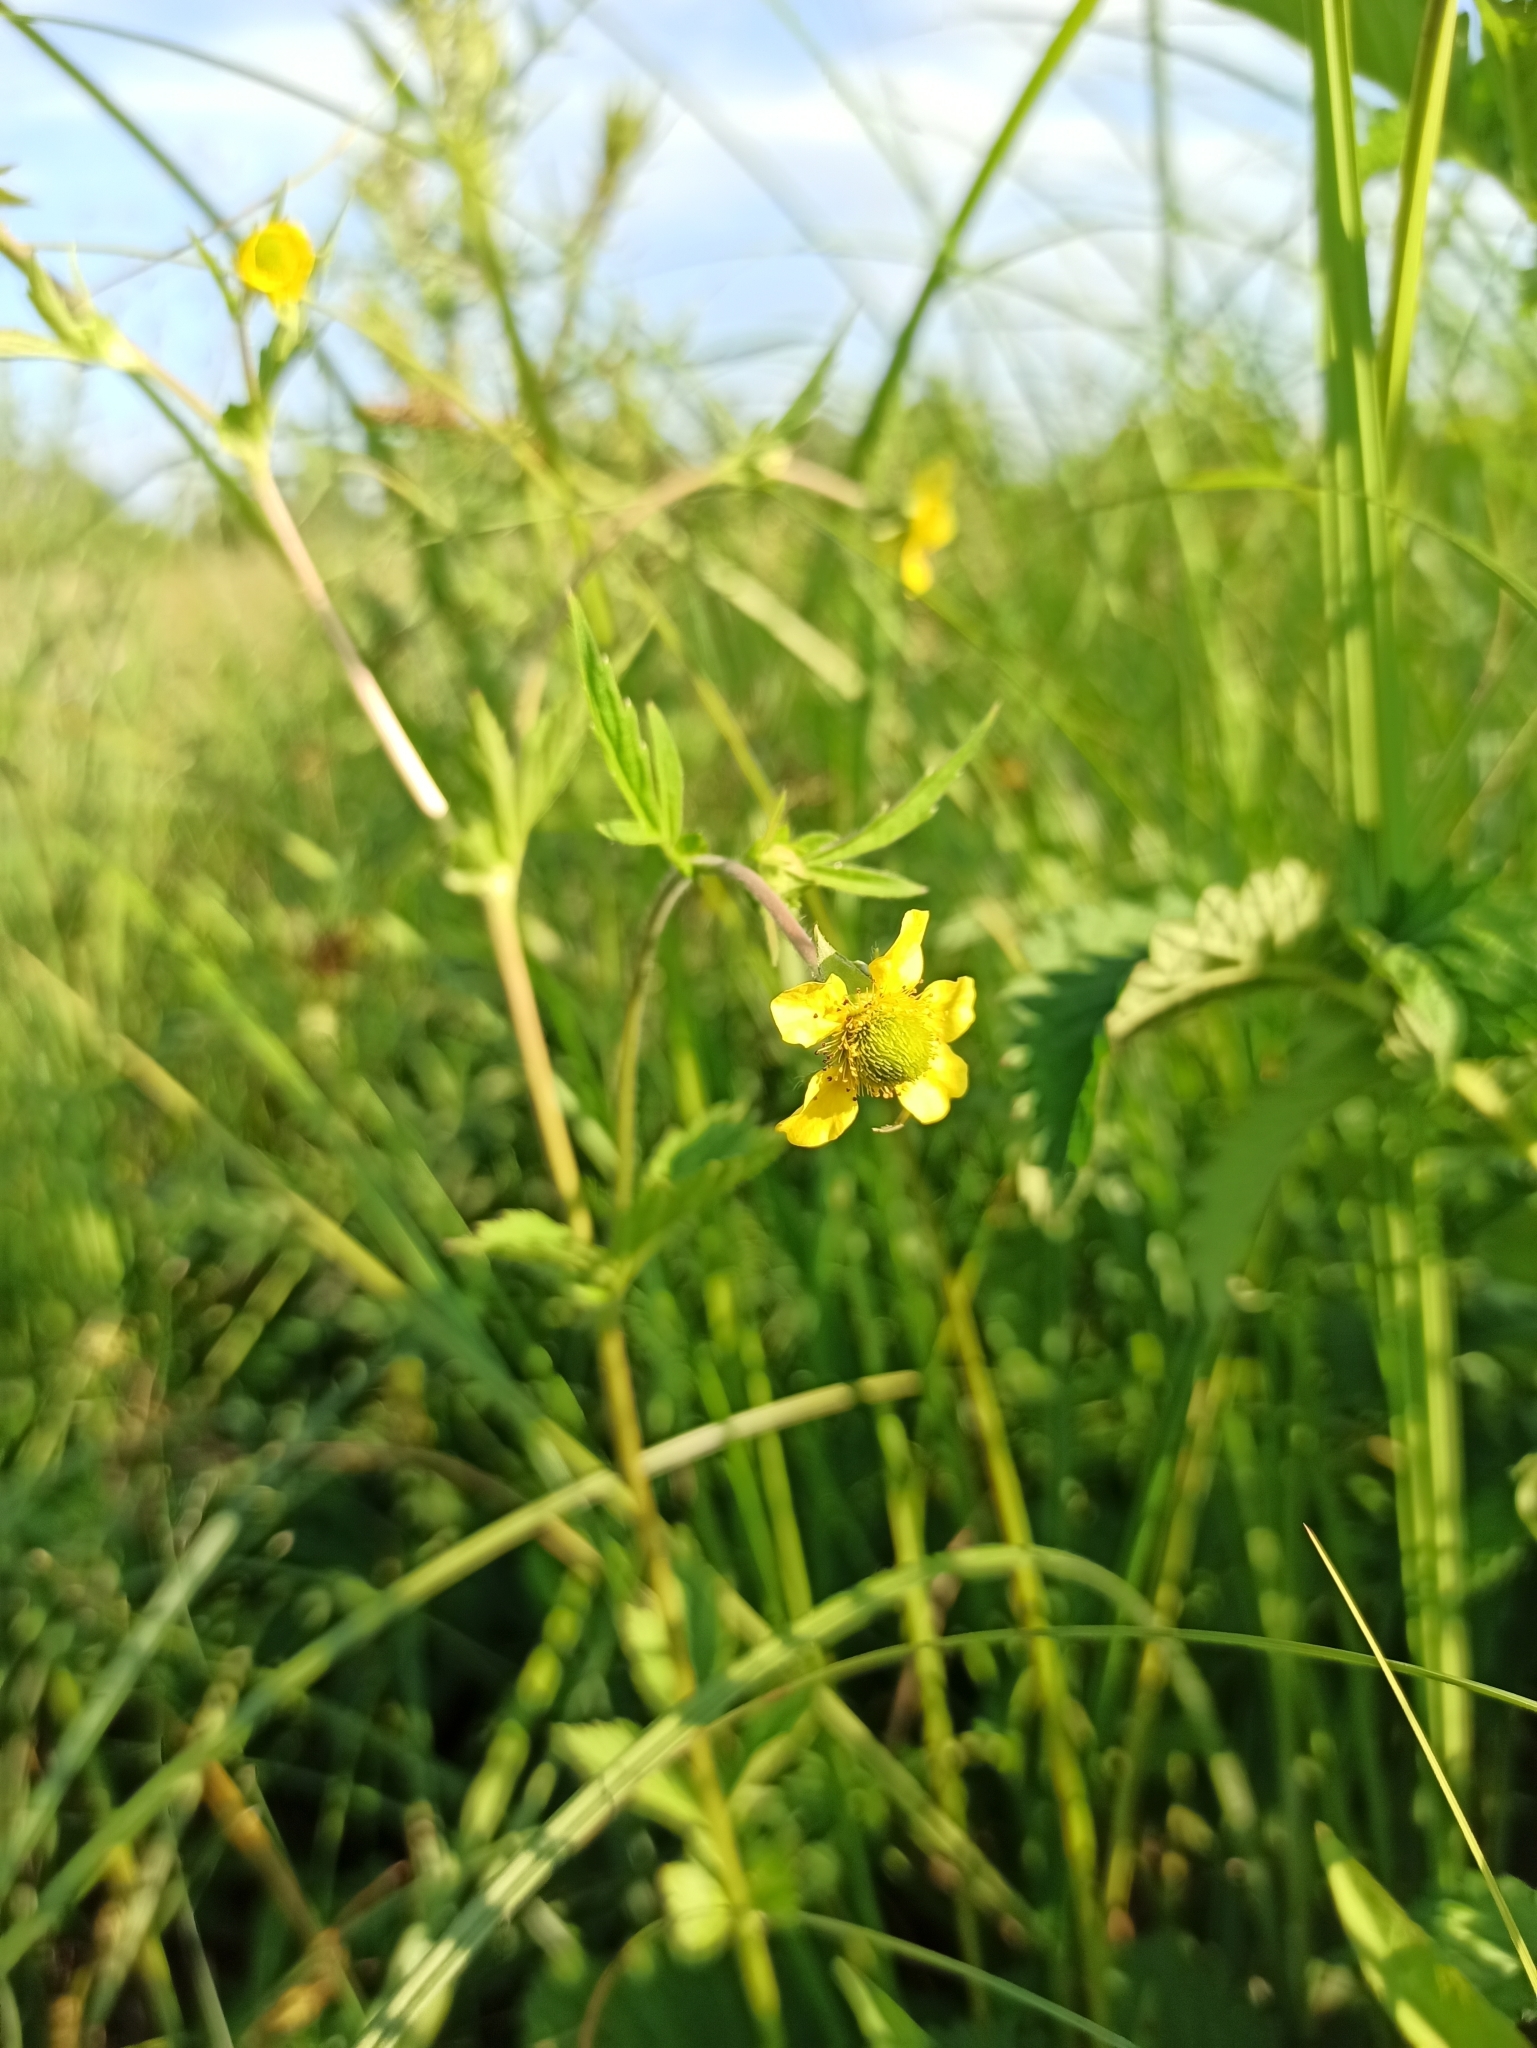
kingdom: Plantae
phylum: Tracheophyta
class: Magnoliopsida
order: Rosales
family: Rosaceae
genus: Geum
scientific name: Geum aleppicum
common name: Yellow avens
